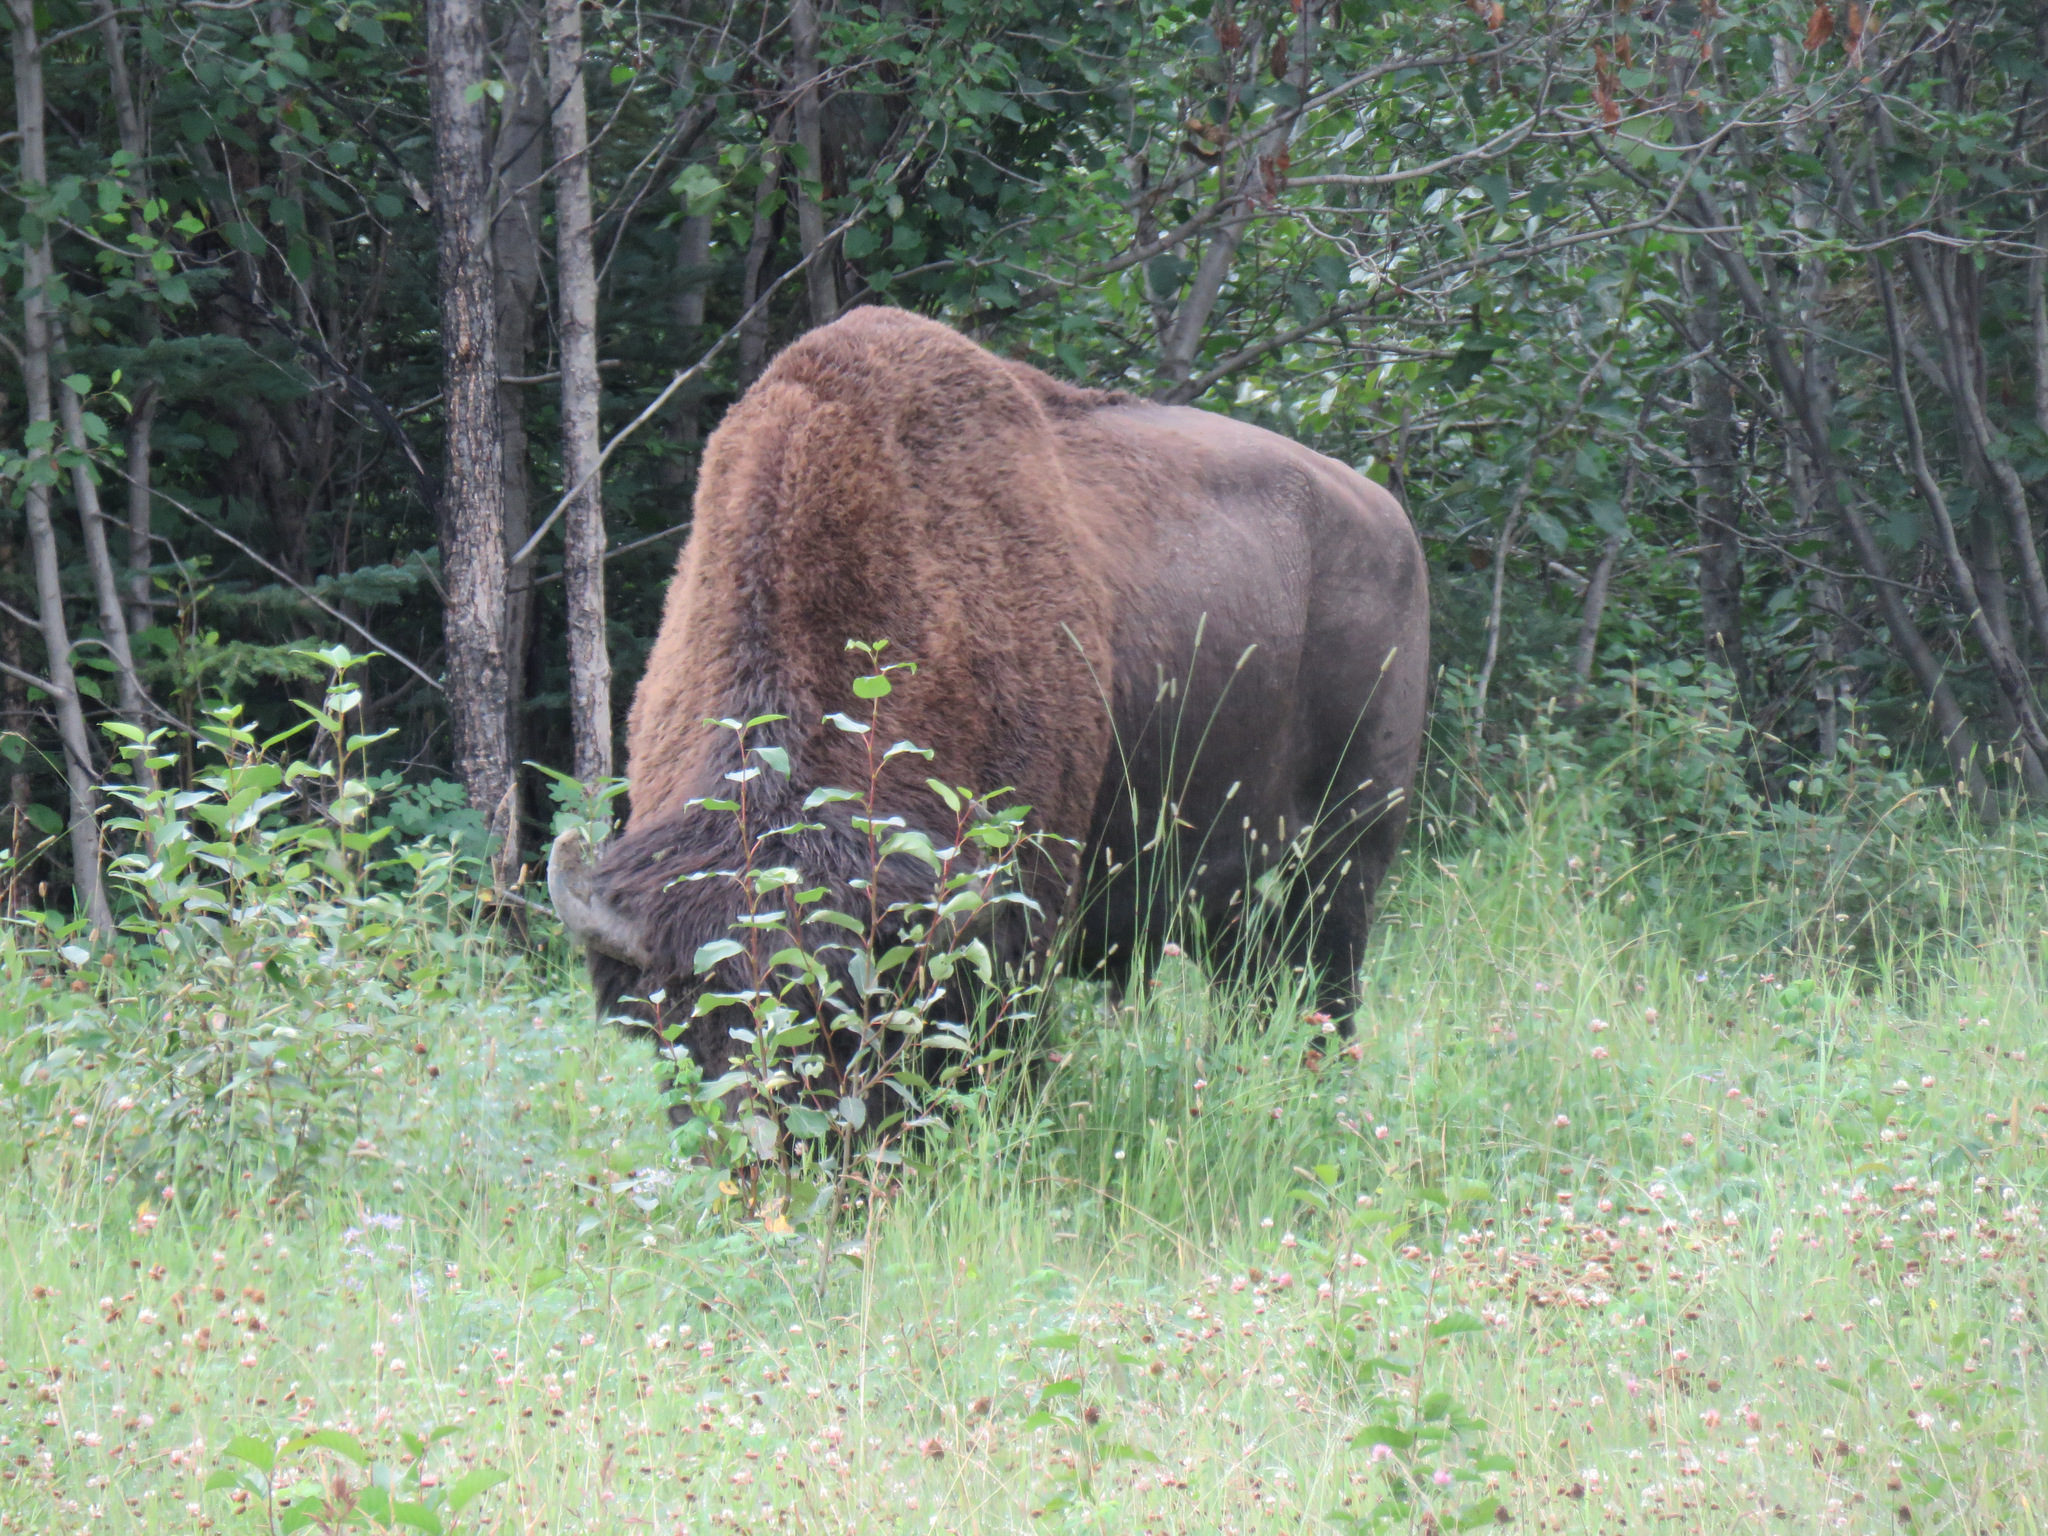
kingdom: Animalia
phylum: Chordata
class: Mammalia
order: Artiodactyla
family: Bovidae
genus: Bison
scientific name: Bison bison
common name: American bison
